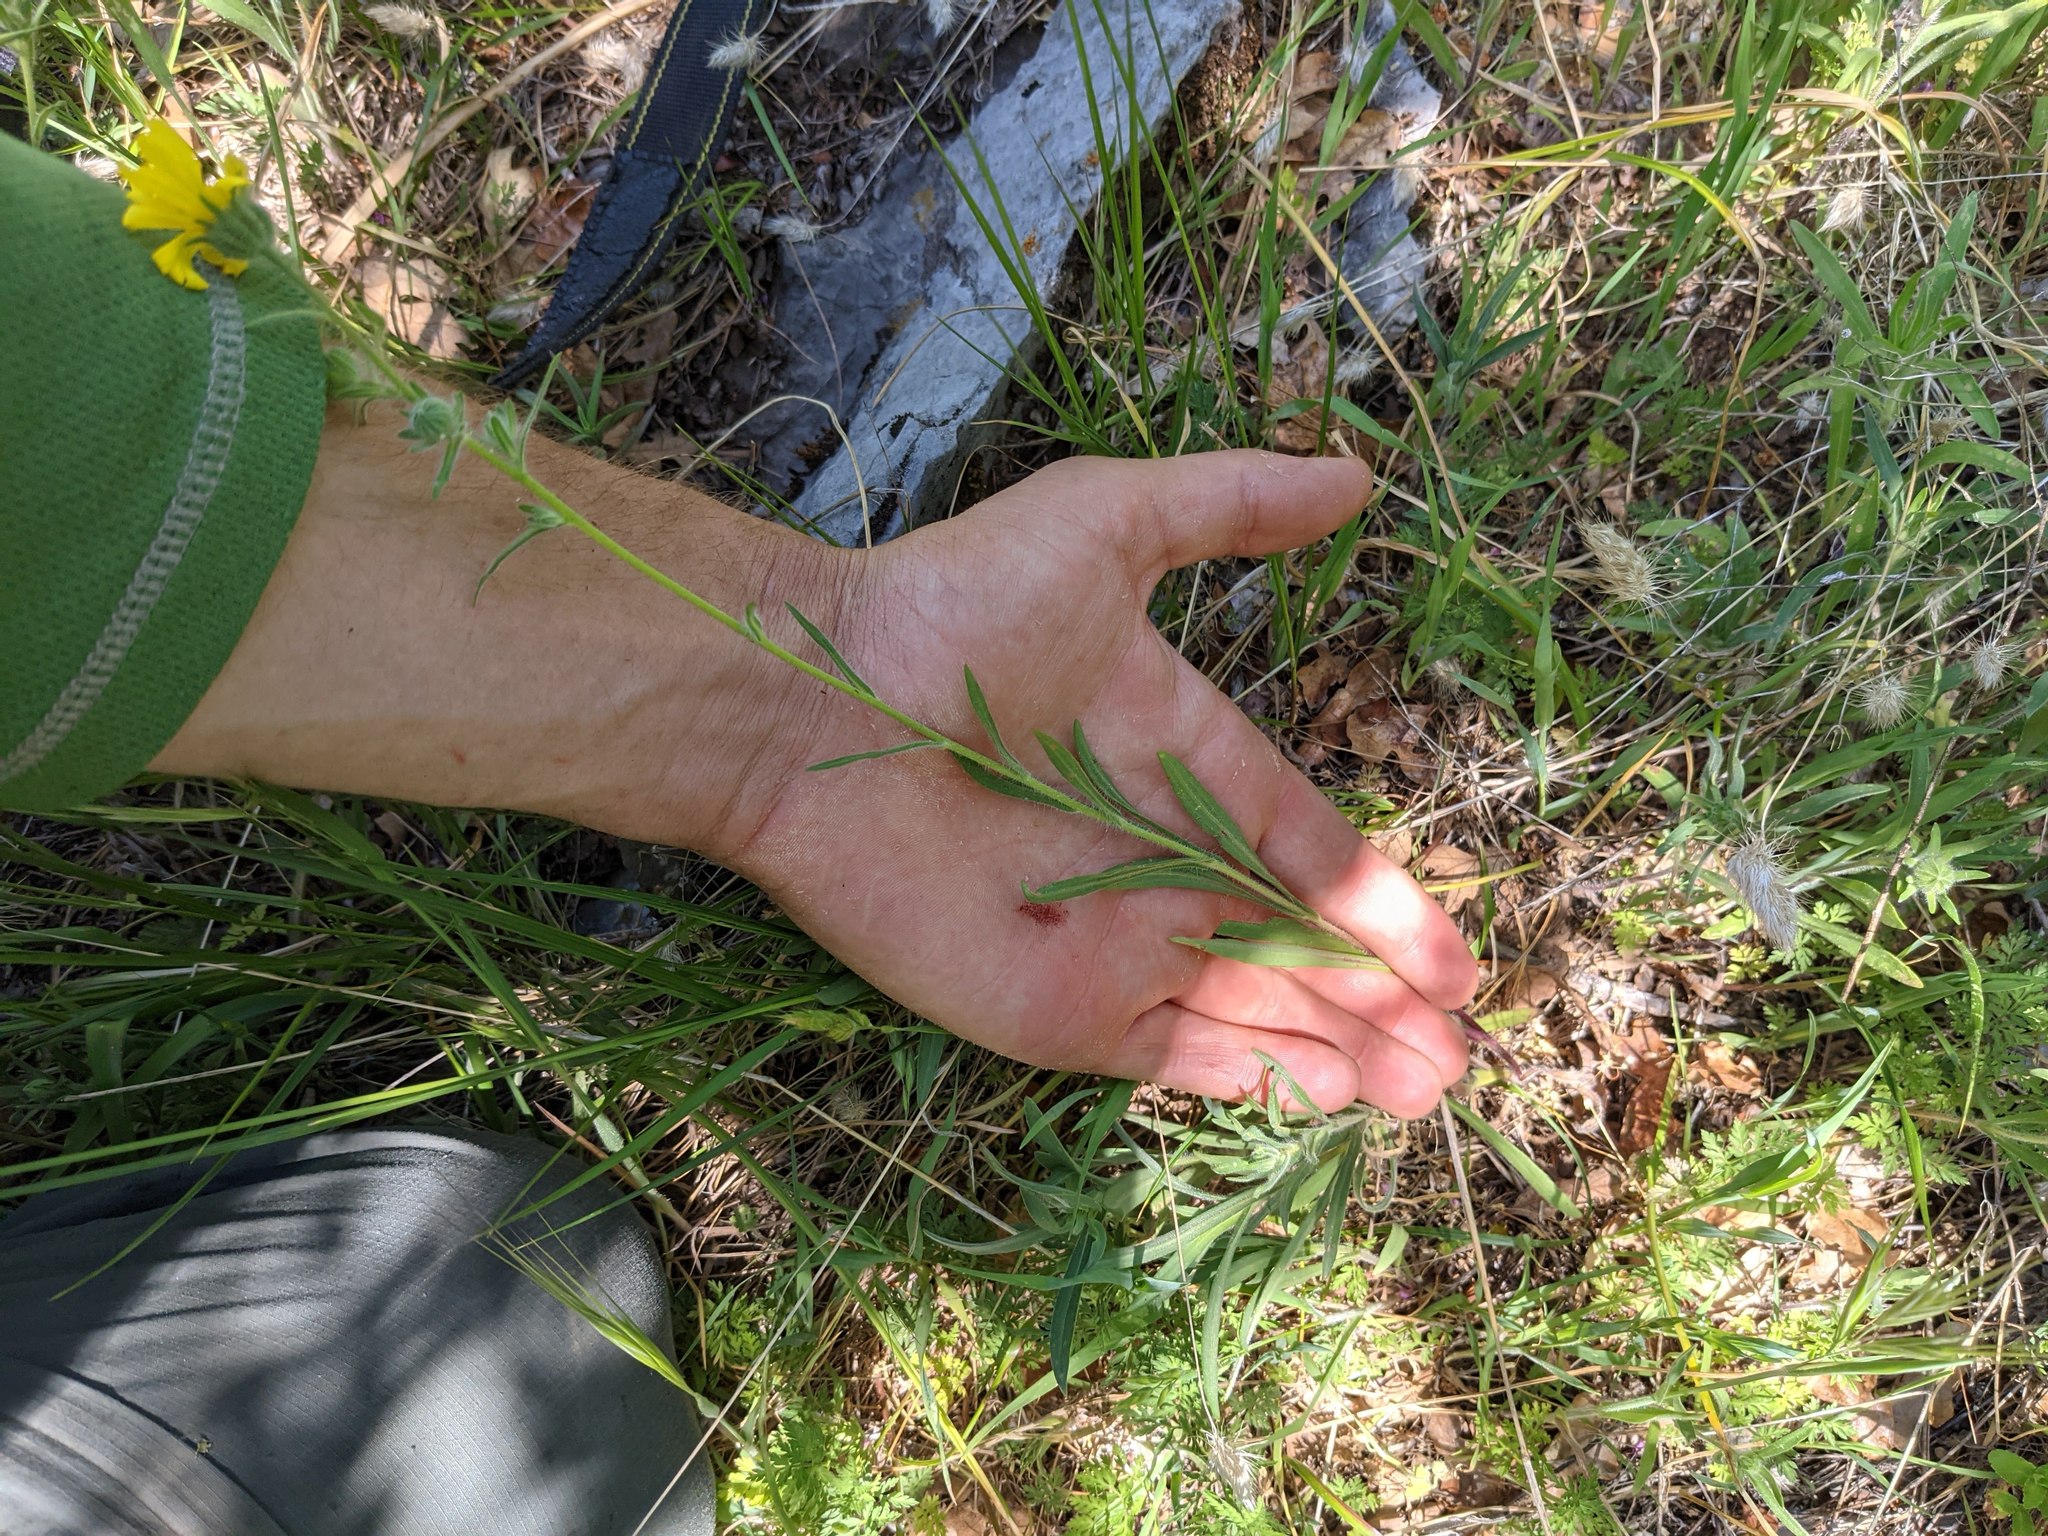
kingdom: Plantae
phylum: Tracheophyta
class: Magnoliopsida
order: Asterales
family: Asteraceae
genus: Madia
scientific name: Madia elegans
